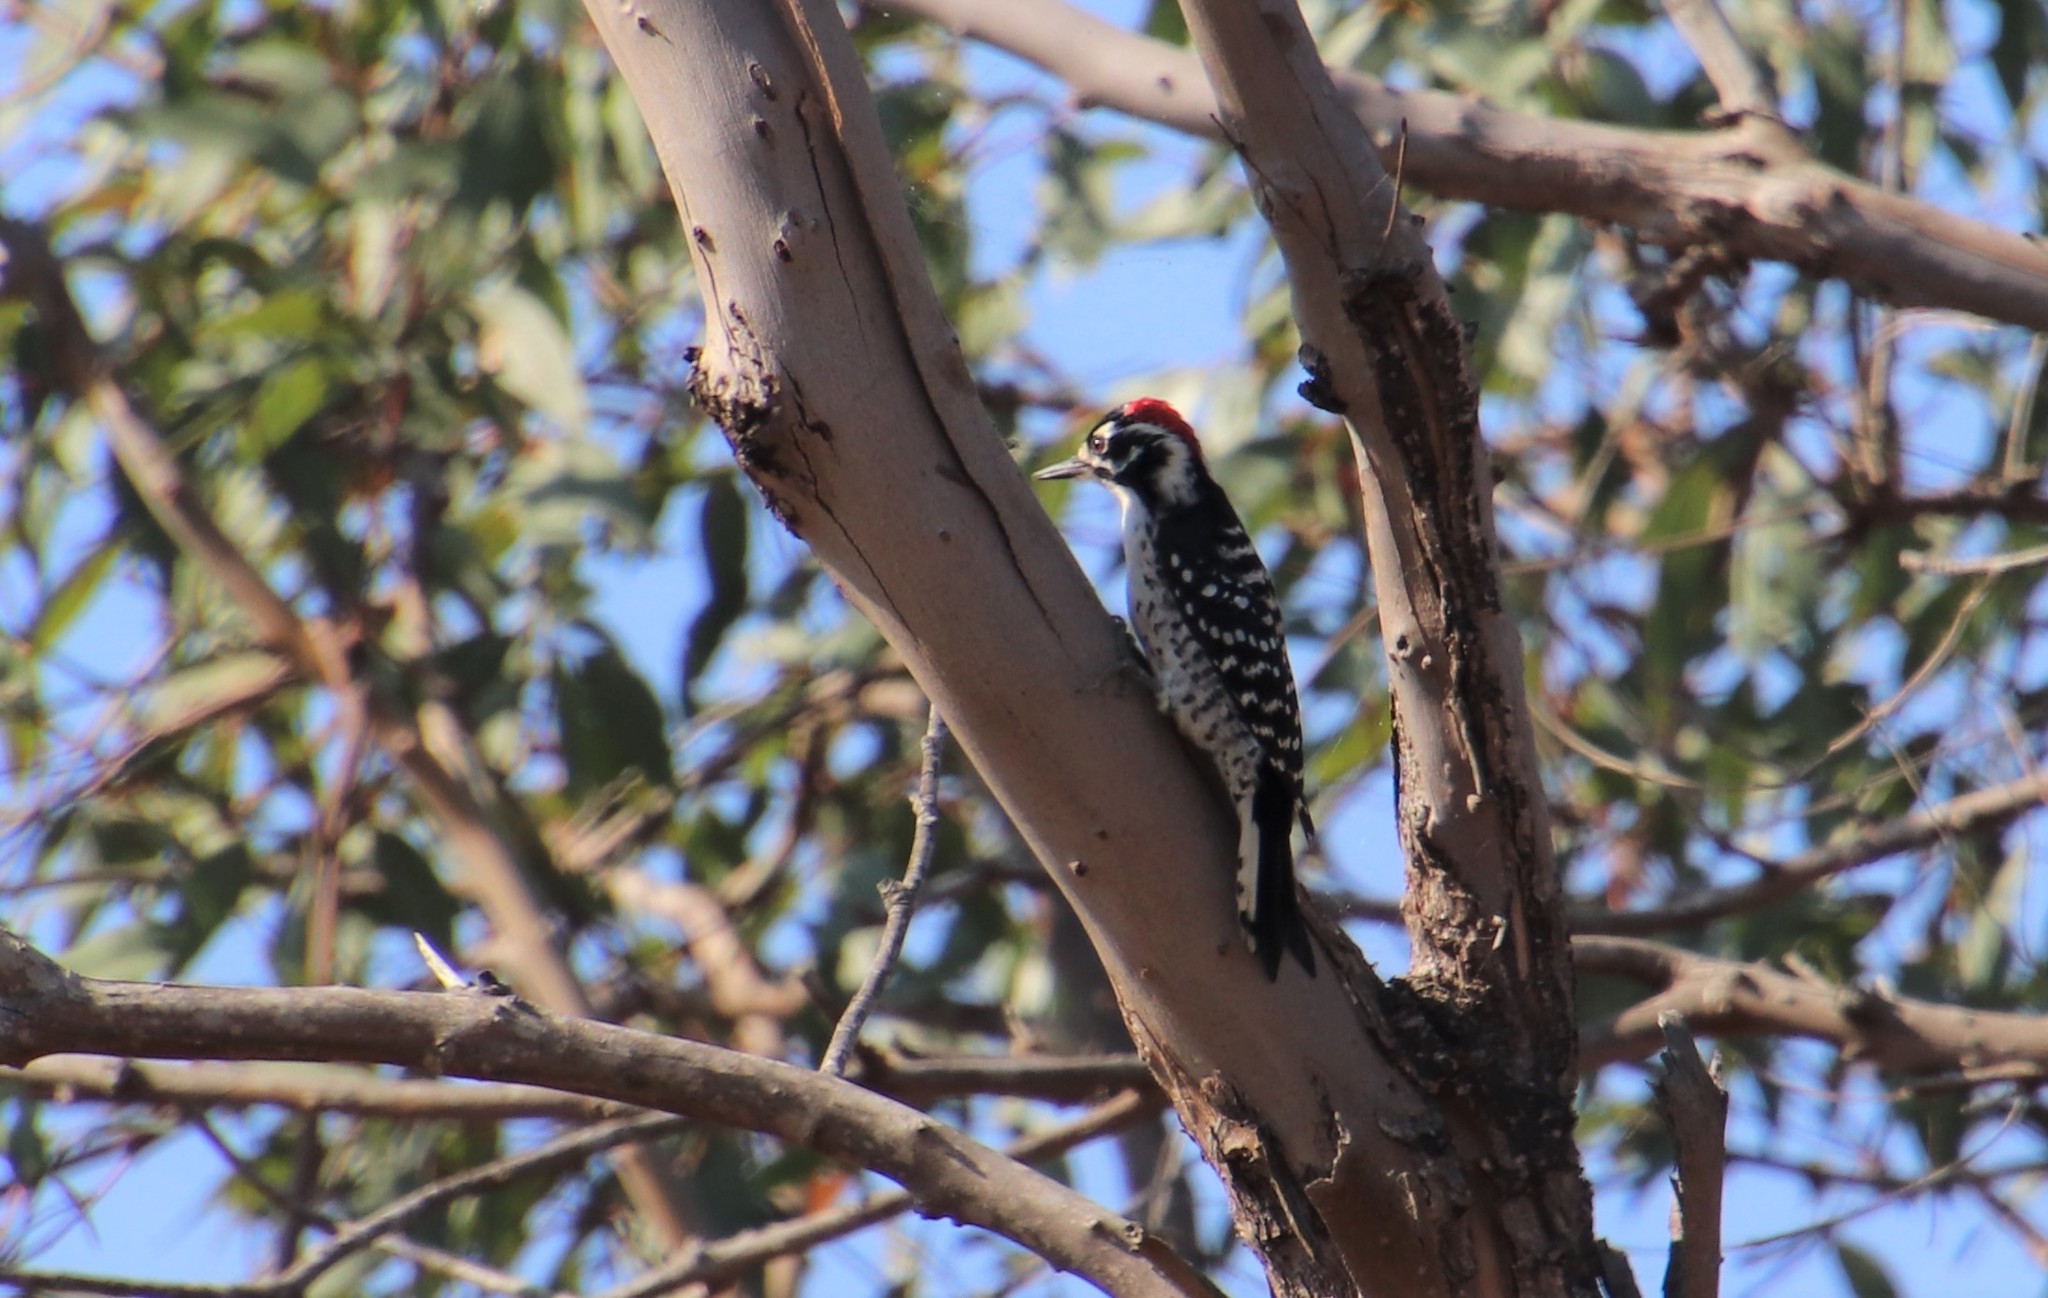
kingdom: Animalia
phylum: Chordata
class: Aves
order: Piciformes
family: Picidae
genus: Dryobates
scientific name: Dryobates nuttallii
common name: Nuttall's woodpecker
